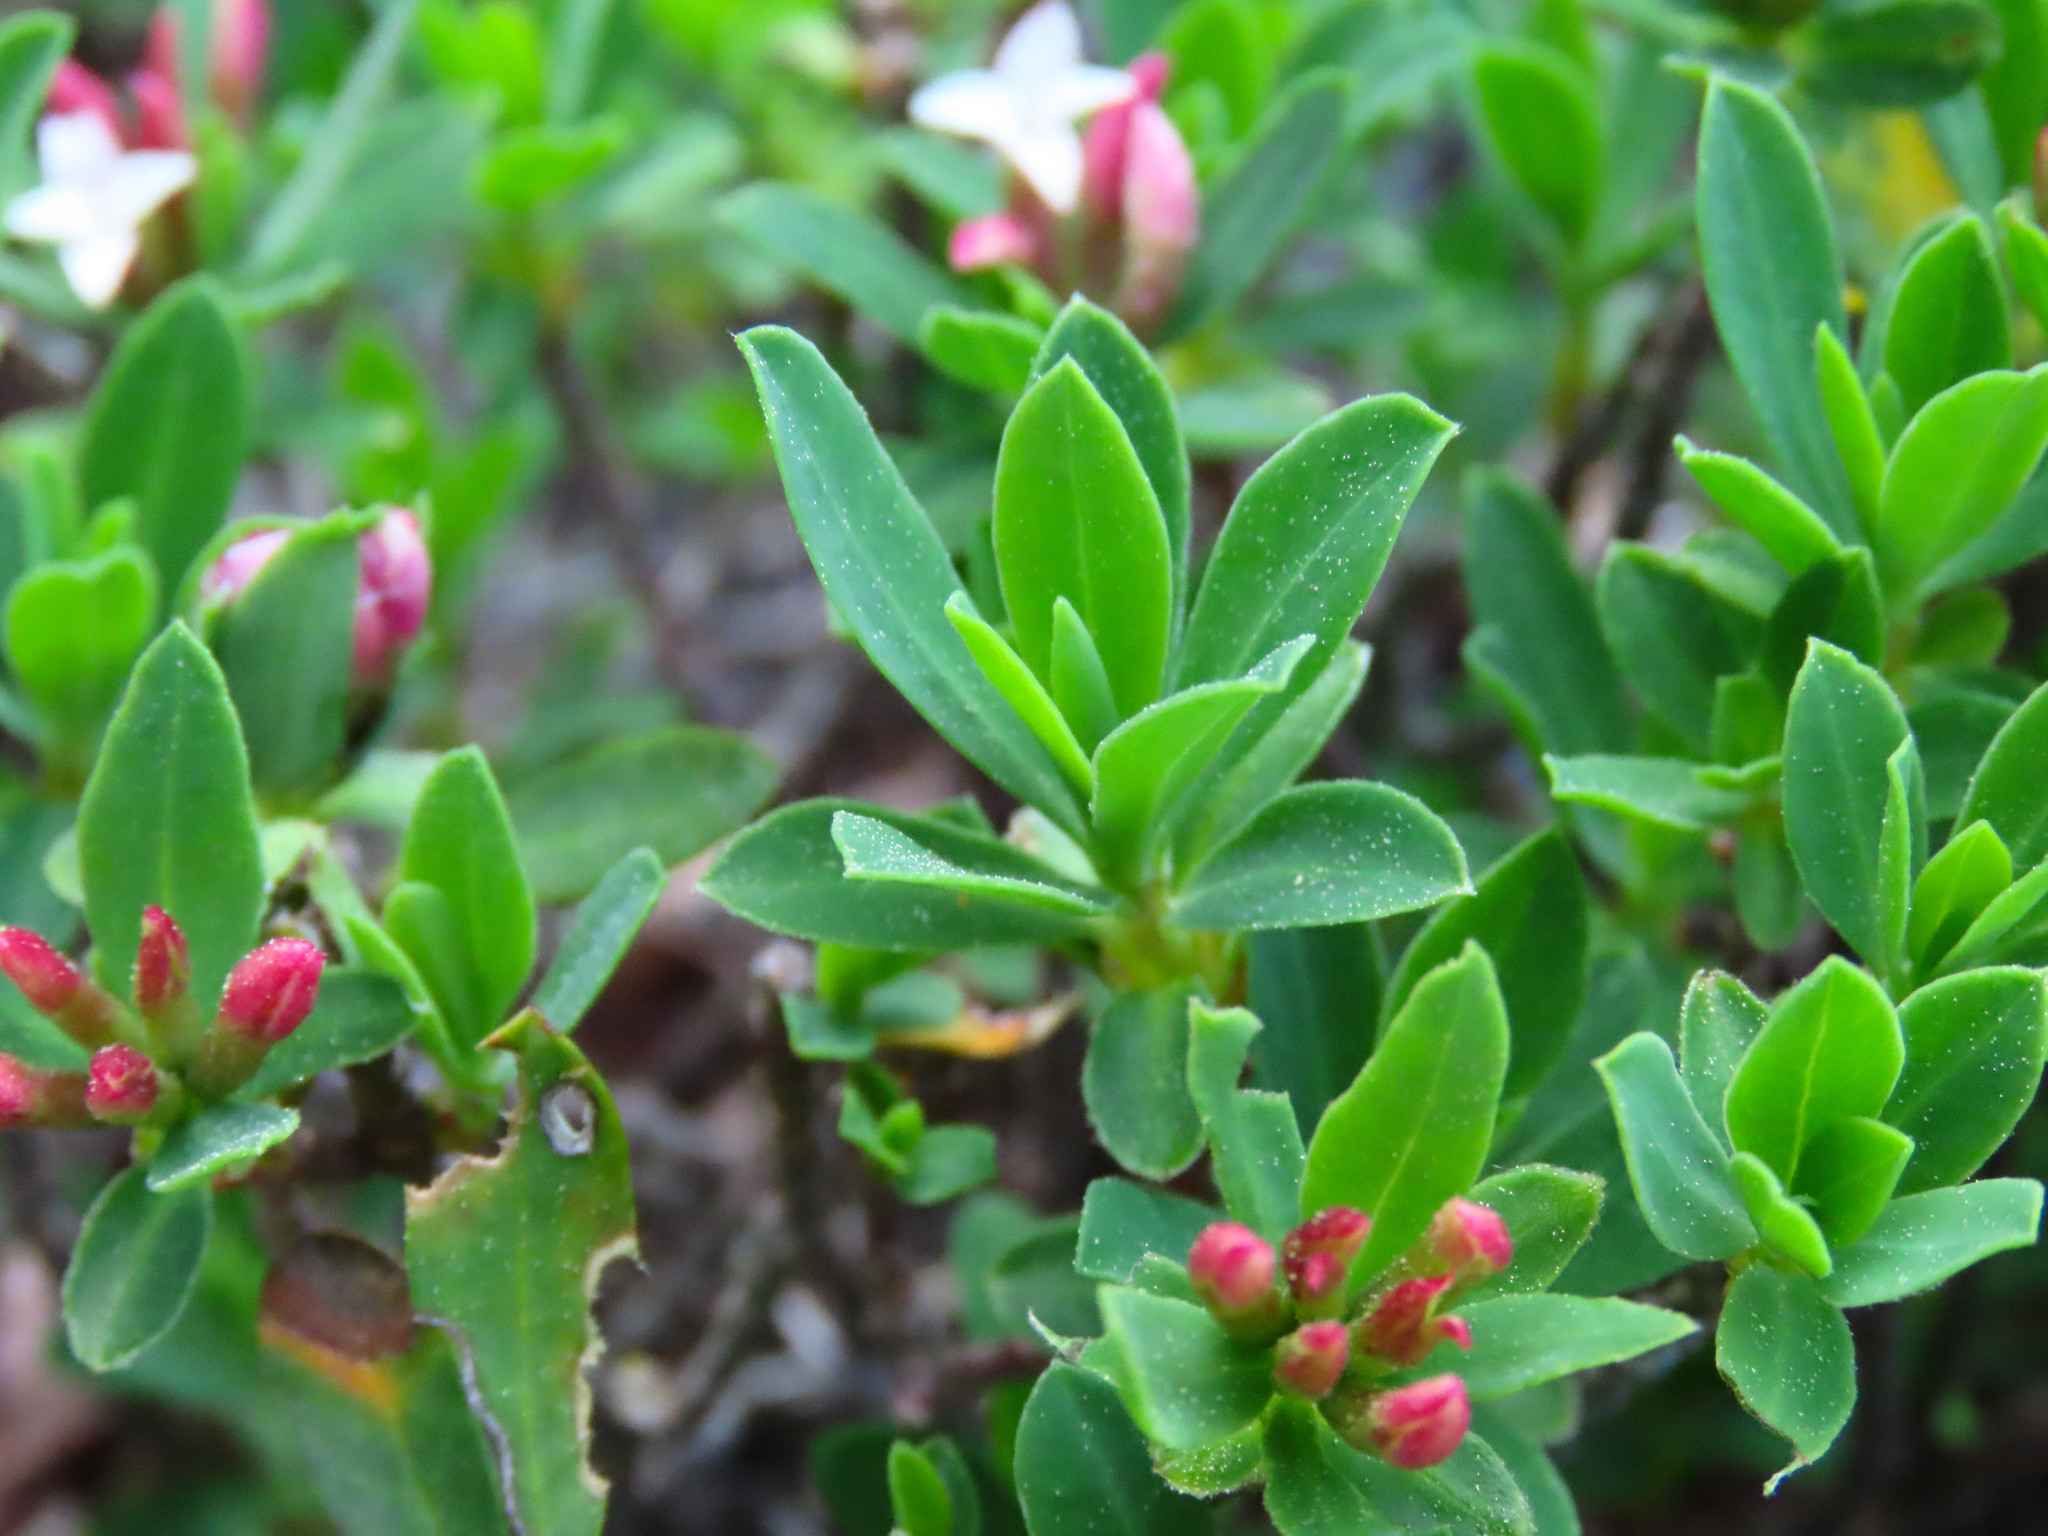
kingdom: Plantae
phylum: Tracheophyta
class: Magnoliopsida
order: Malvales
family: Thymelaeaceae
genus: Daphne
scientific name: Daphne oleoides
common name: Spurge-olive
